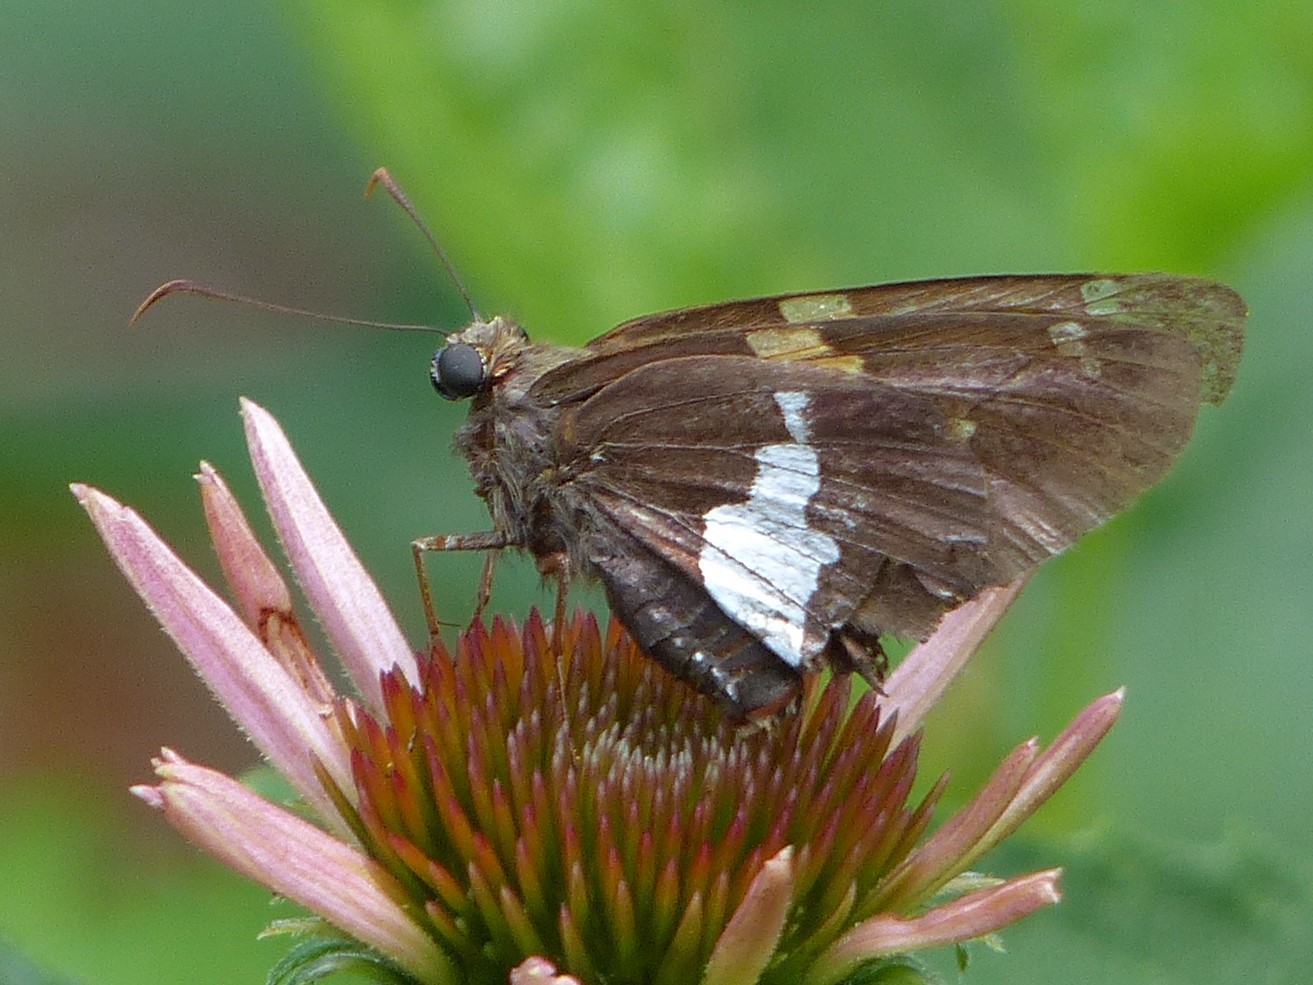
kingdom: Animalia
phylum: Arthropoda
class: Insecta
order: Lepidoptera
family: Hesperiidae
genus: Epargyreus
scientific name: Epargyreus clarus
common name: Silver-spotted skipper
